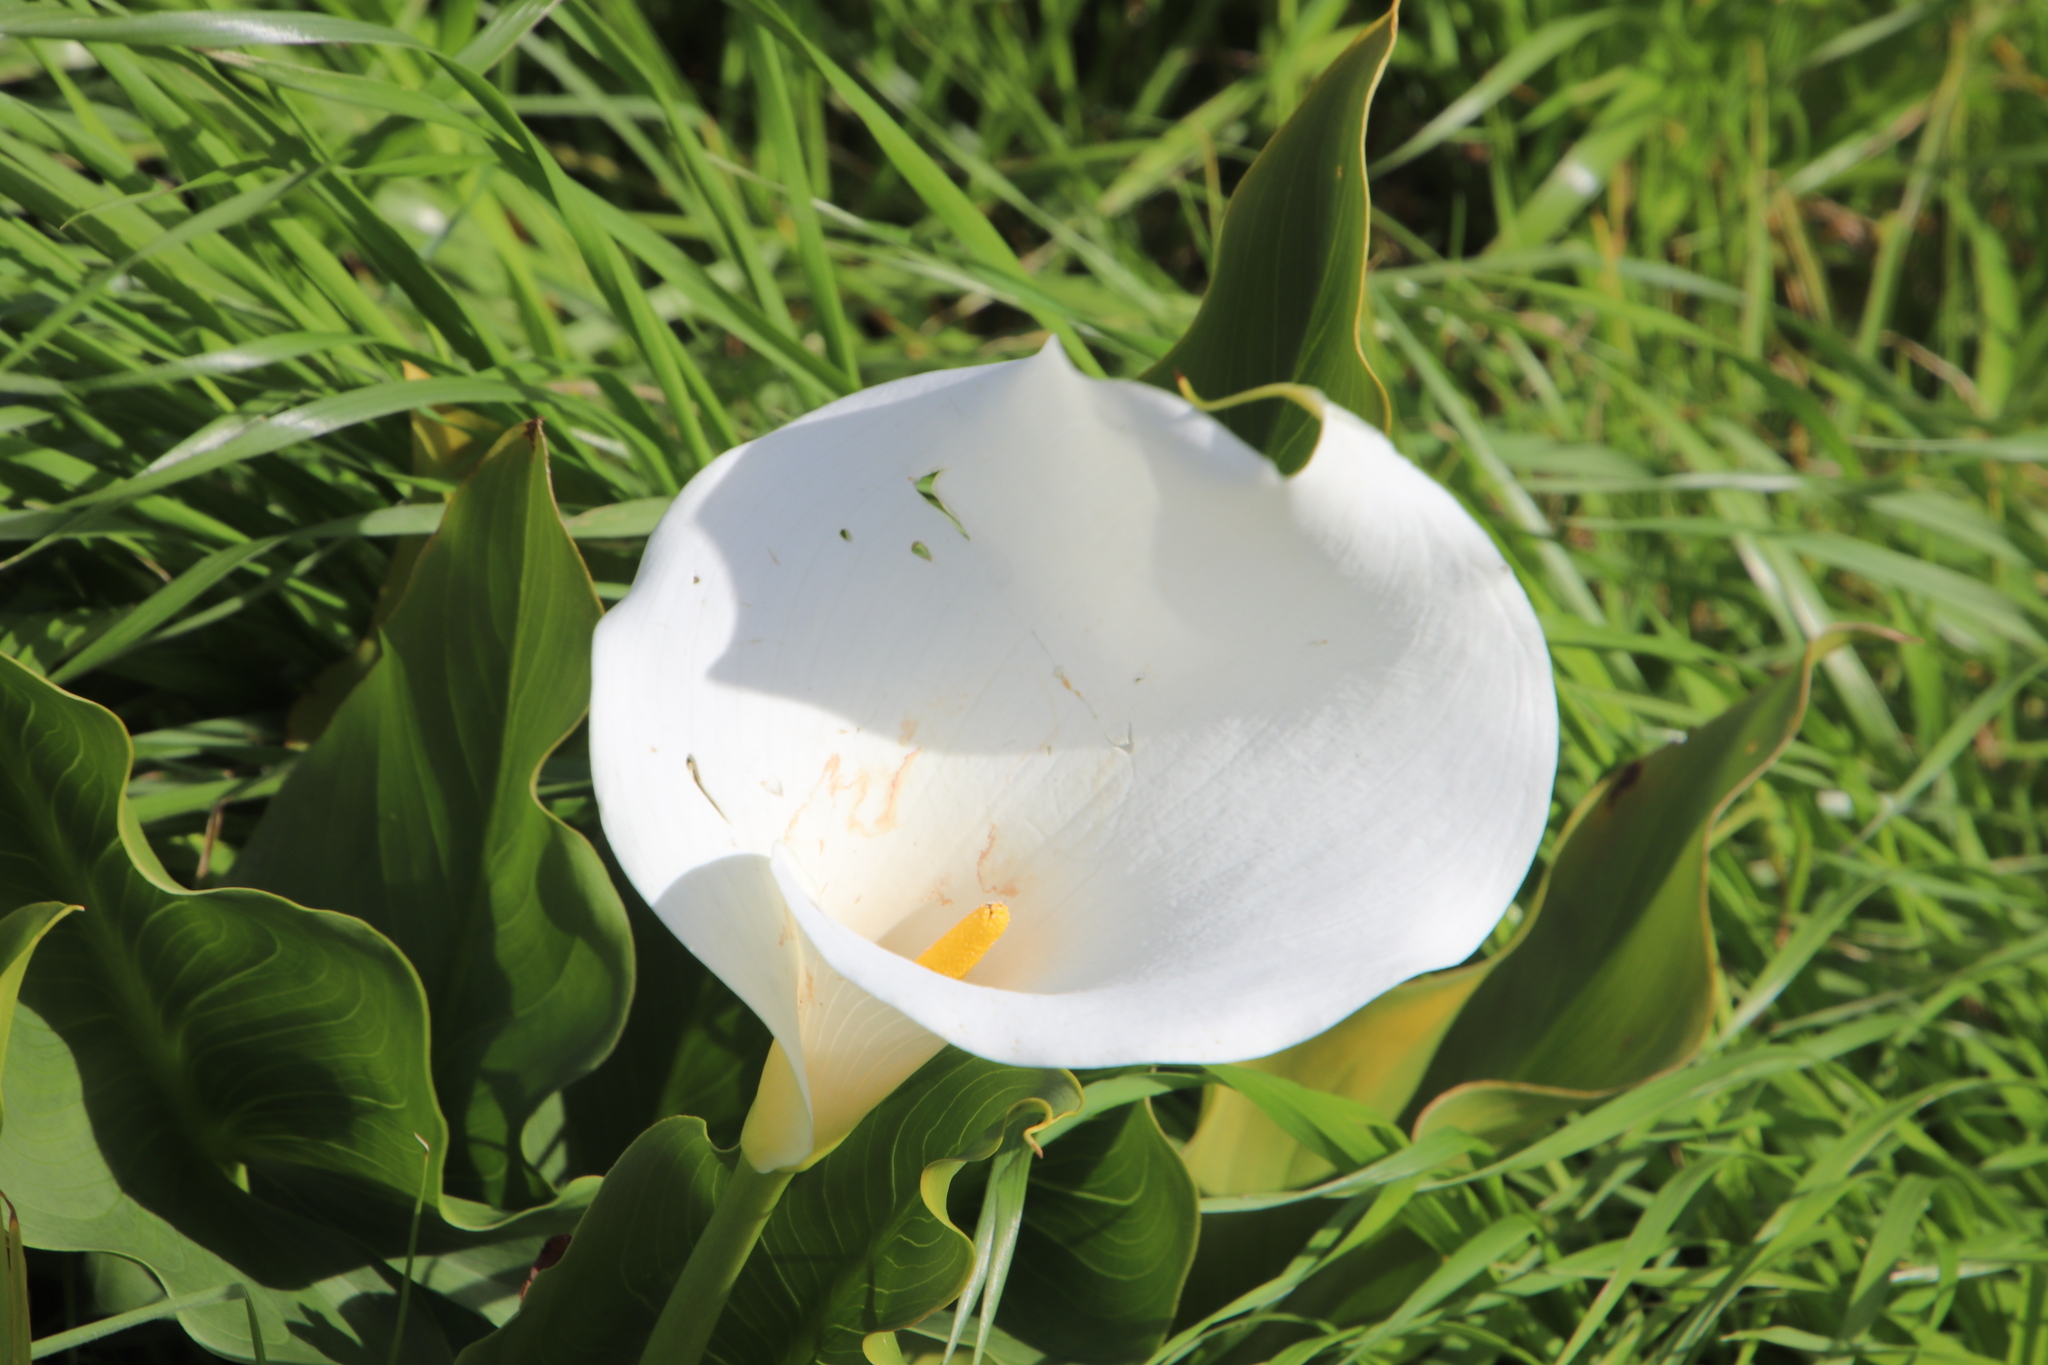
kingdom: Plantae
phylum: Tracheophyta
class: Liliopsida
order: Alismatales
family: Araceae
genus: Zantedeschia
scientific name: Zantedeschia aethiopica
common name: Altar-lily
